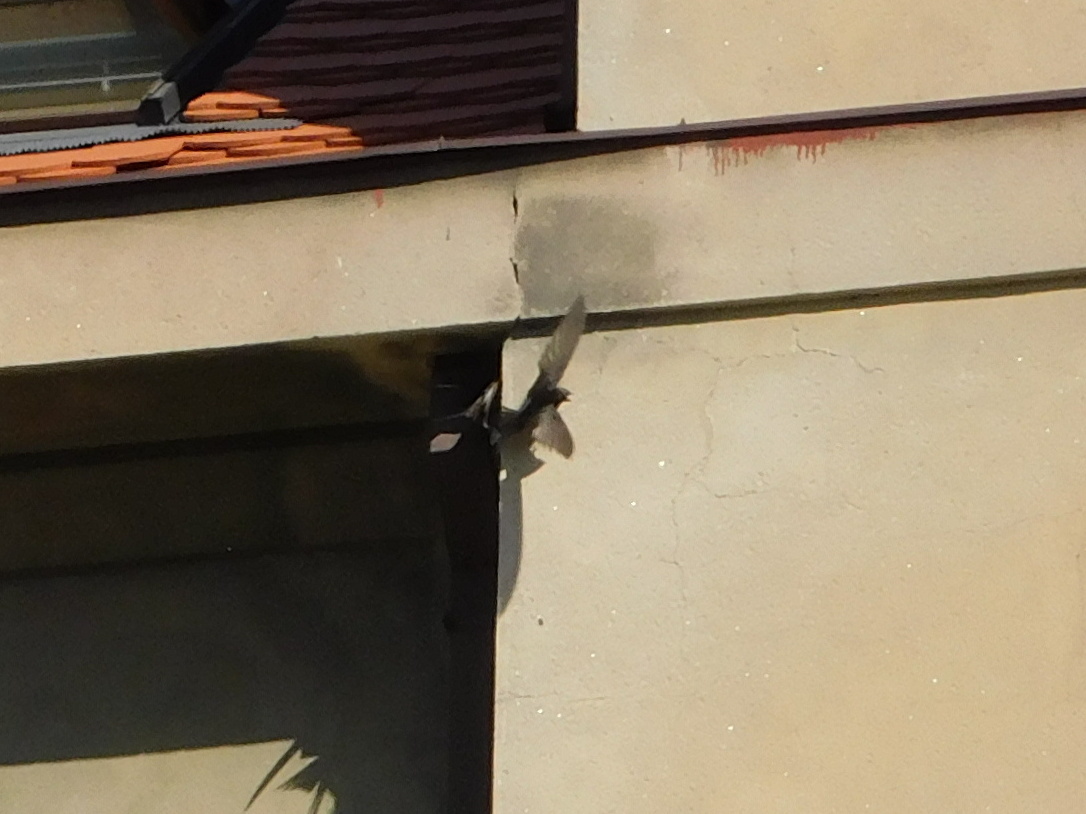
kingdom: Animalia
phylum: Chordata
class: Aves
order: Apodiformes
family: Apodidae
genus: Apus
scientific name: Apus apus
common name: Common swift
